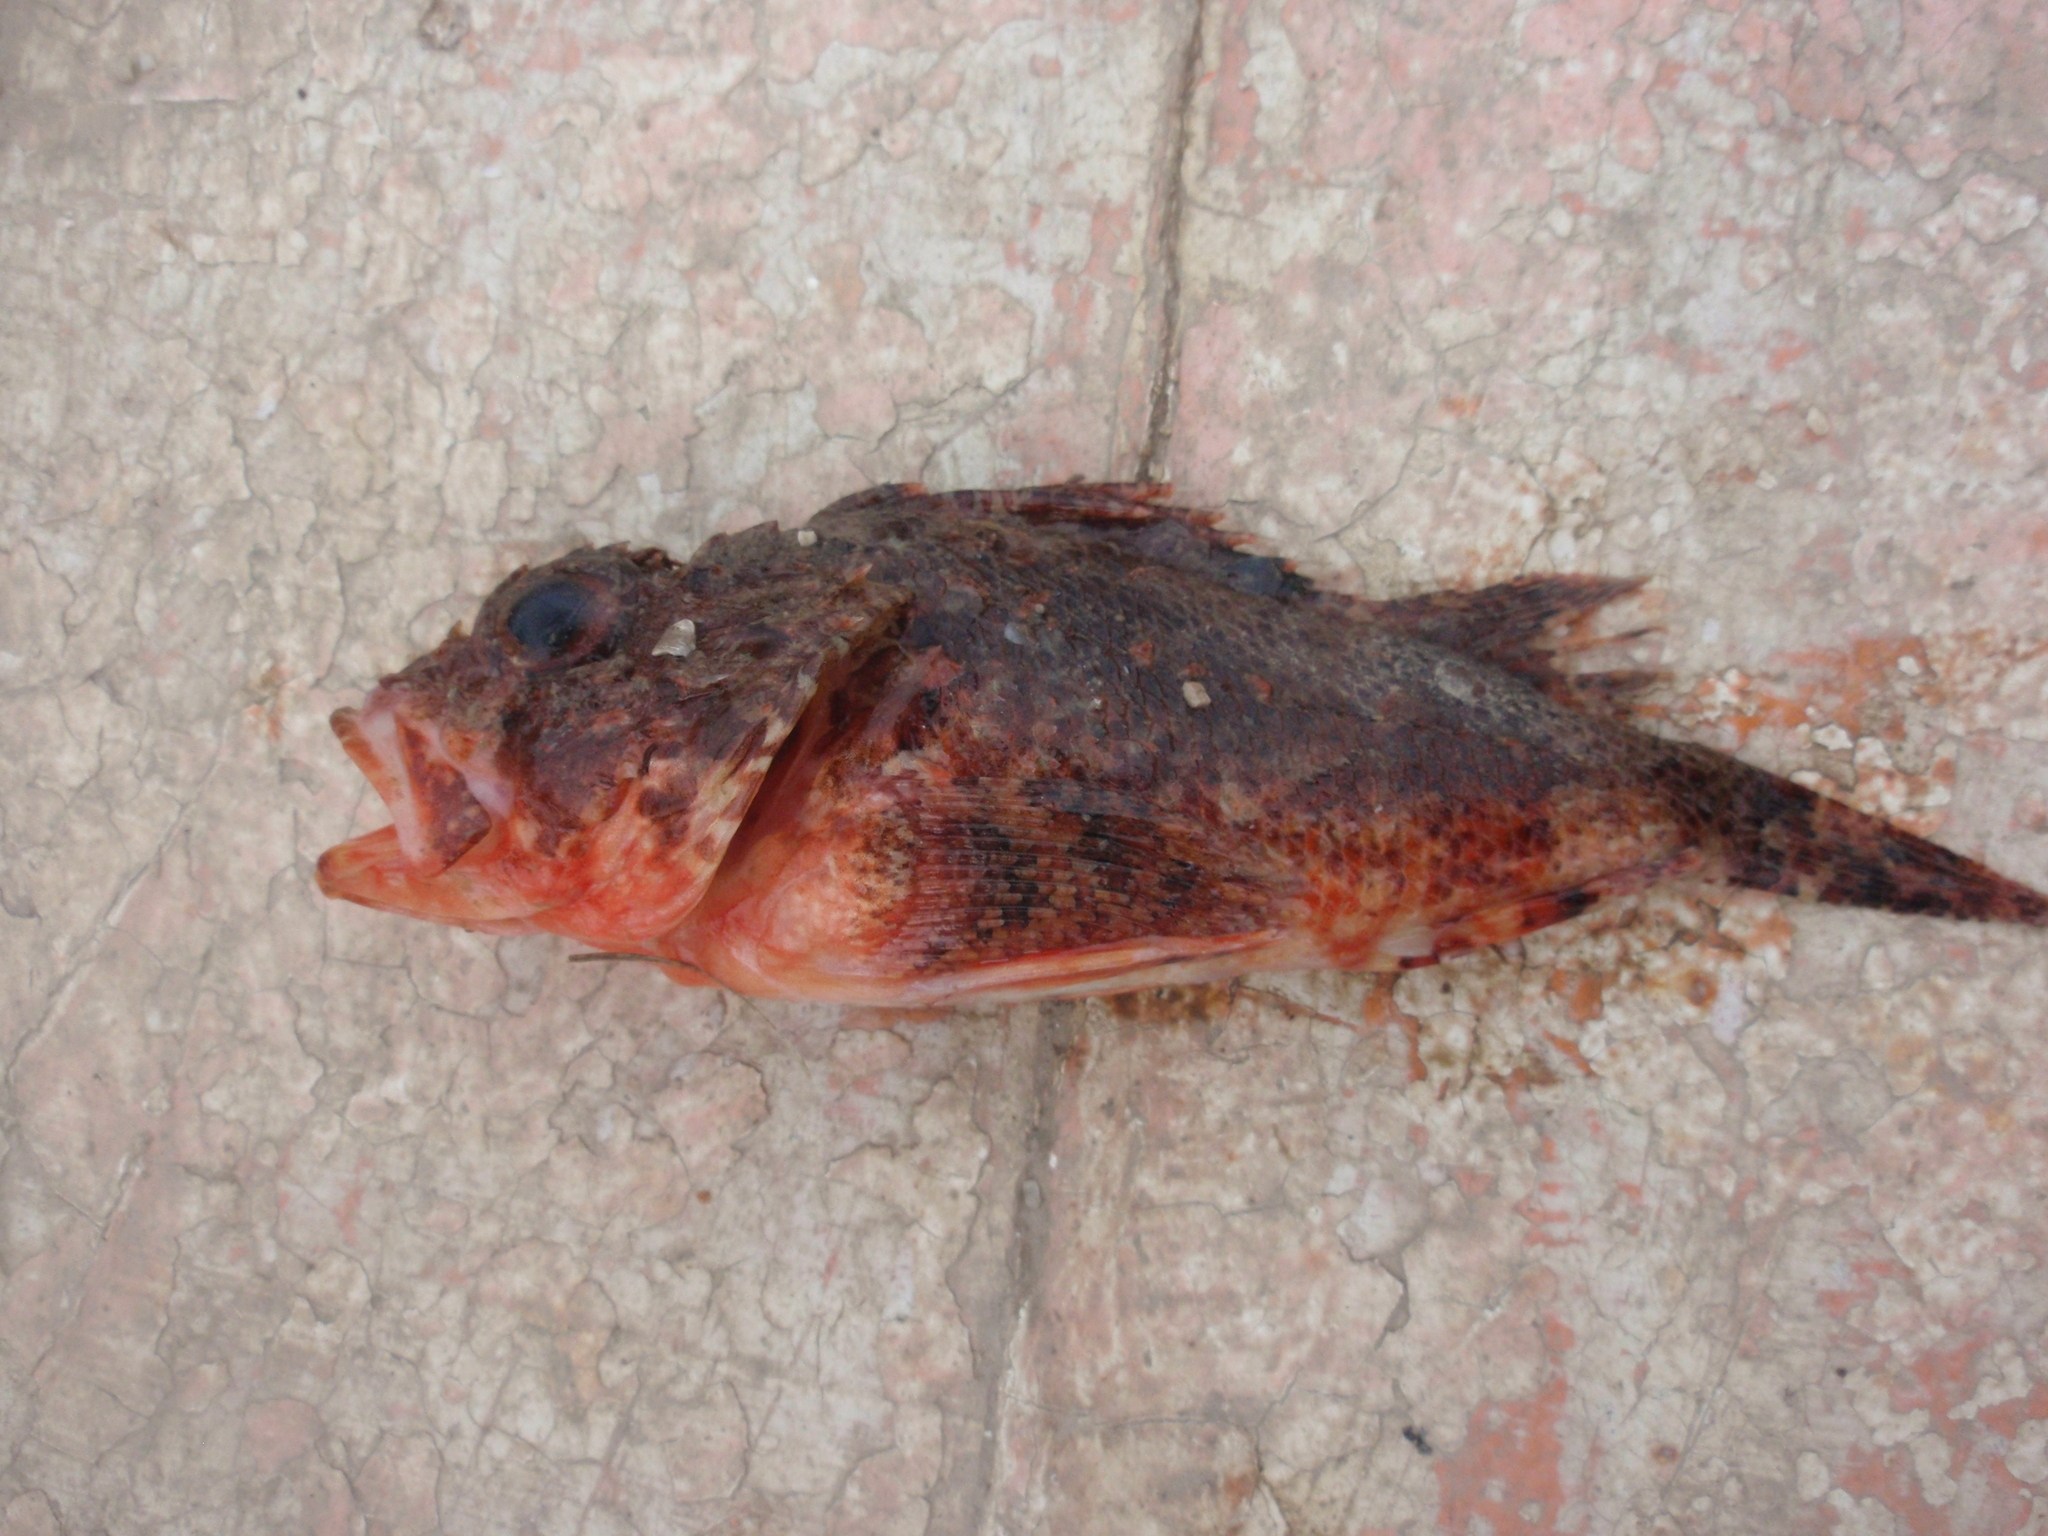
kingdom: Animalia
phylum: Chordata
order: Scorpaeniformes
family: Scorpaenidae
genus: Scorpaena
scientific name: Scorpaena notata
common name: Small red scorpionfish
